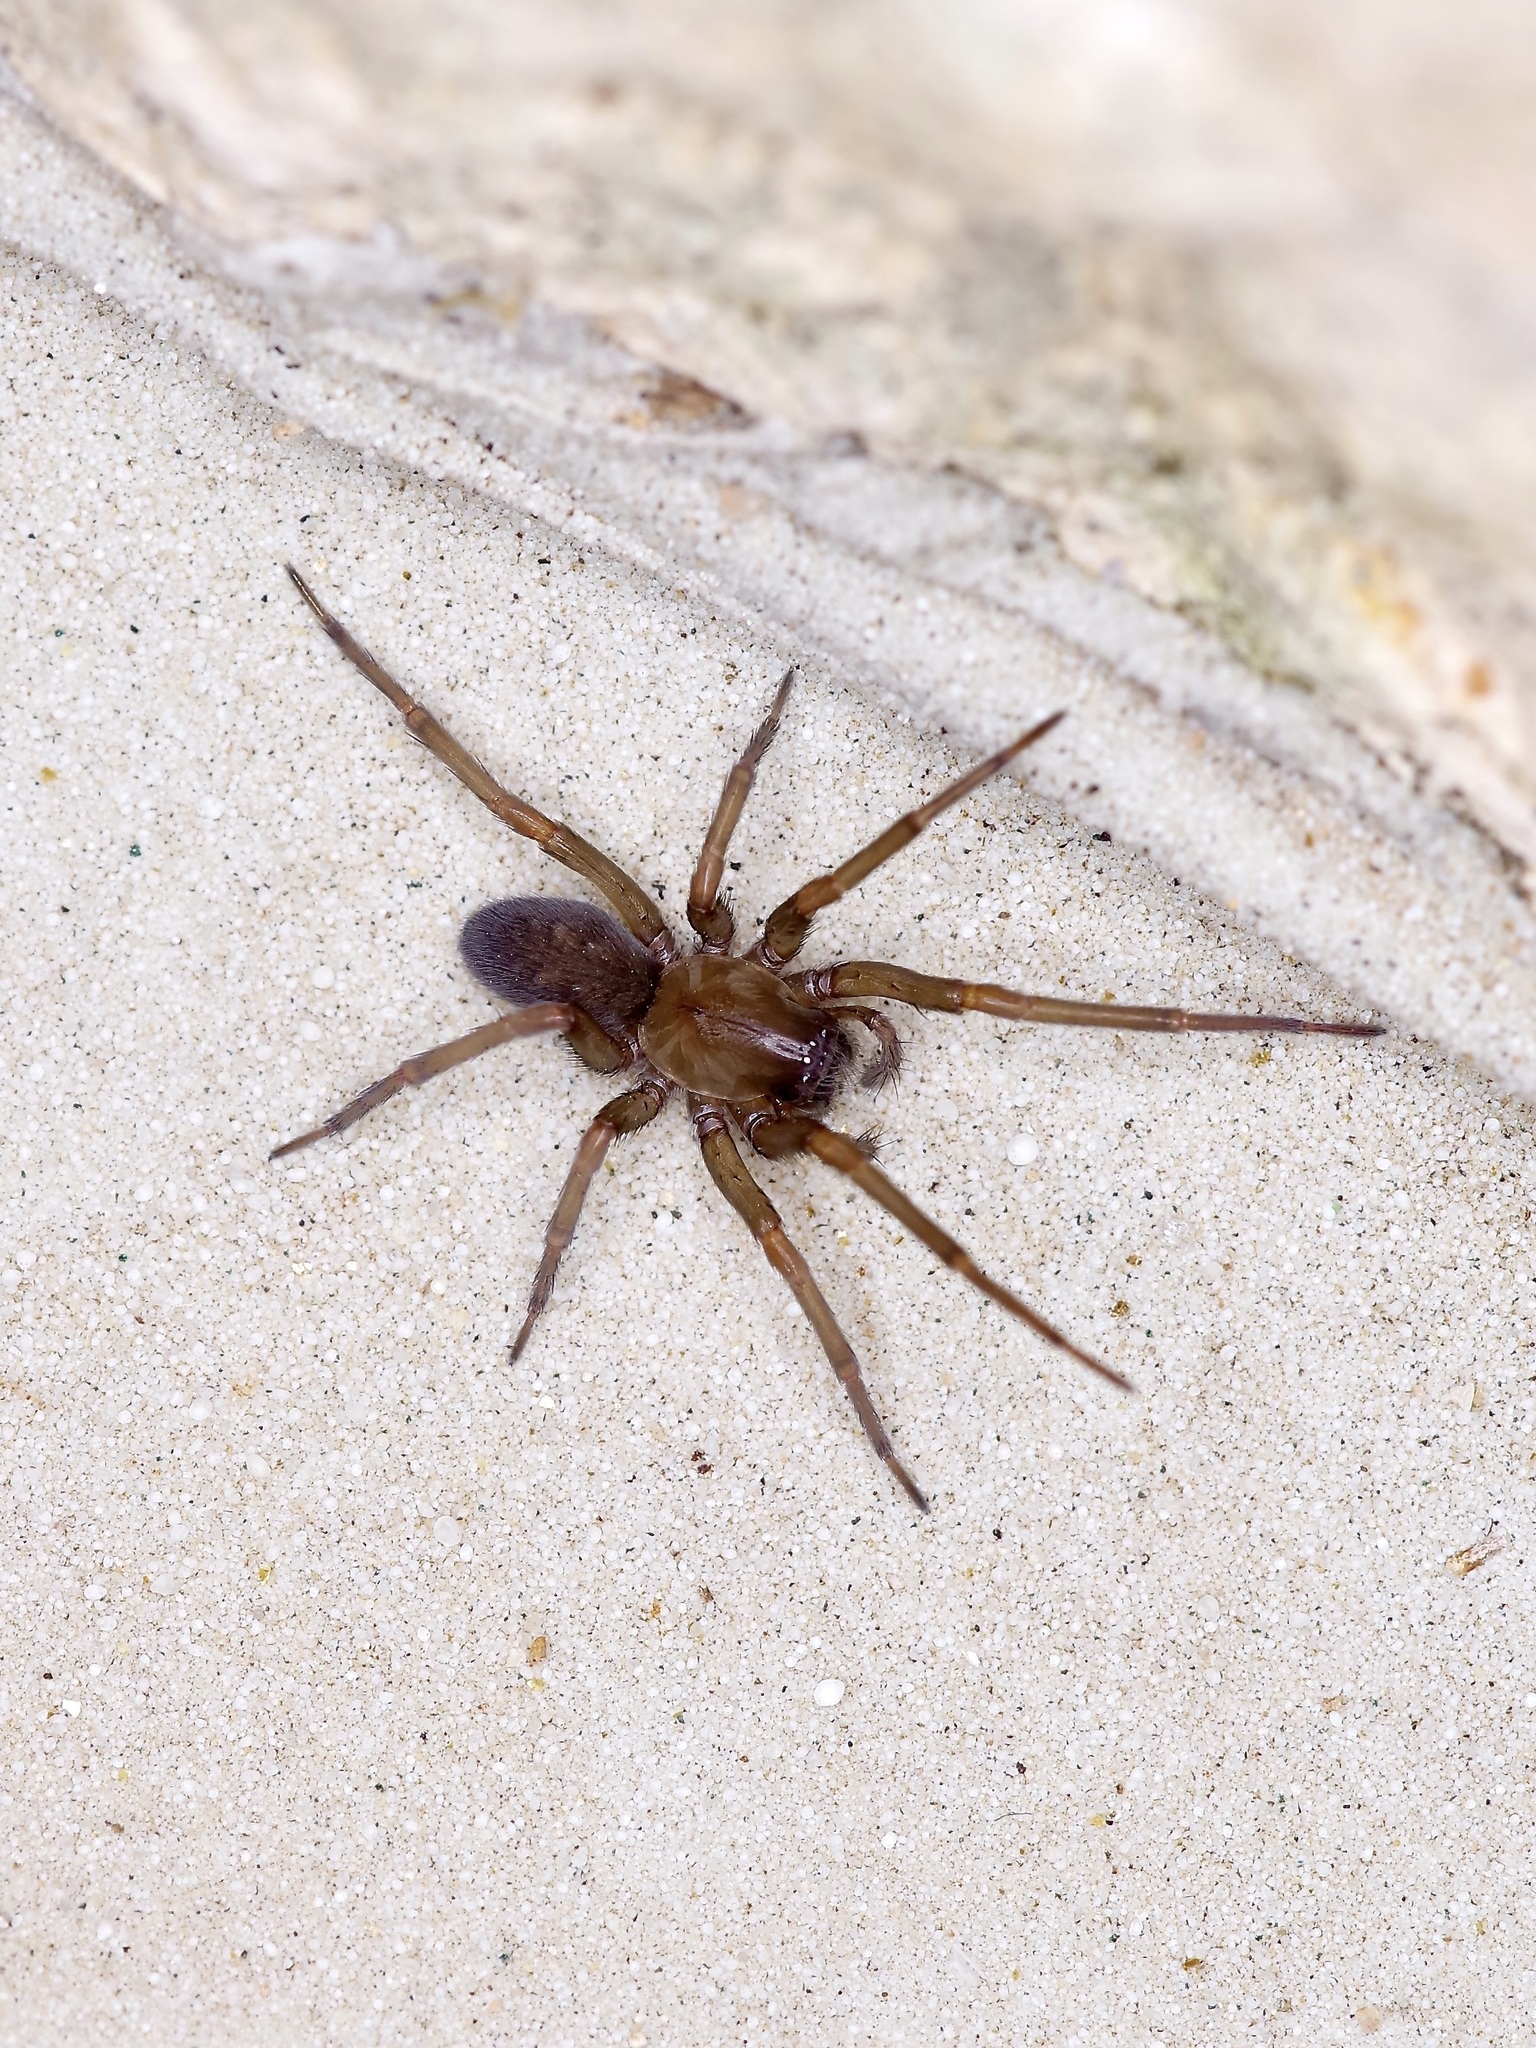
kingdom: Animalia
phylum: Arthropoda
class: Arachnida
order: Araneae
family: Desidae
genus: Metaltella
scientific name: Metaltella simoni
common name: Cribellate spider
